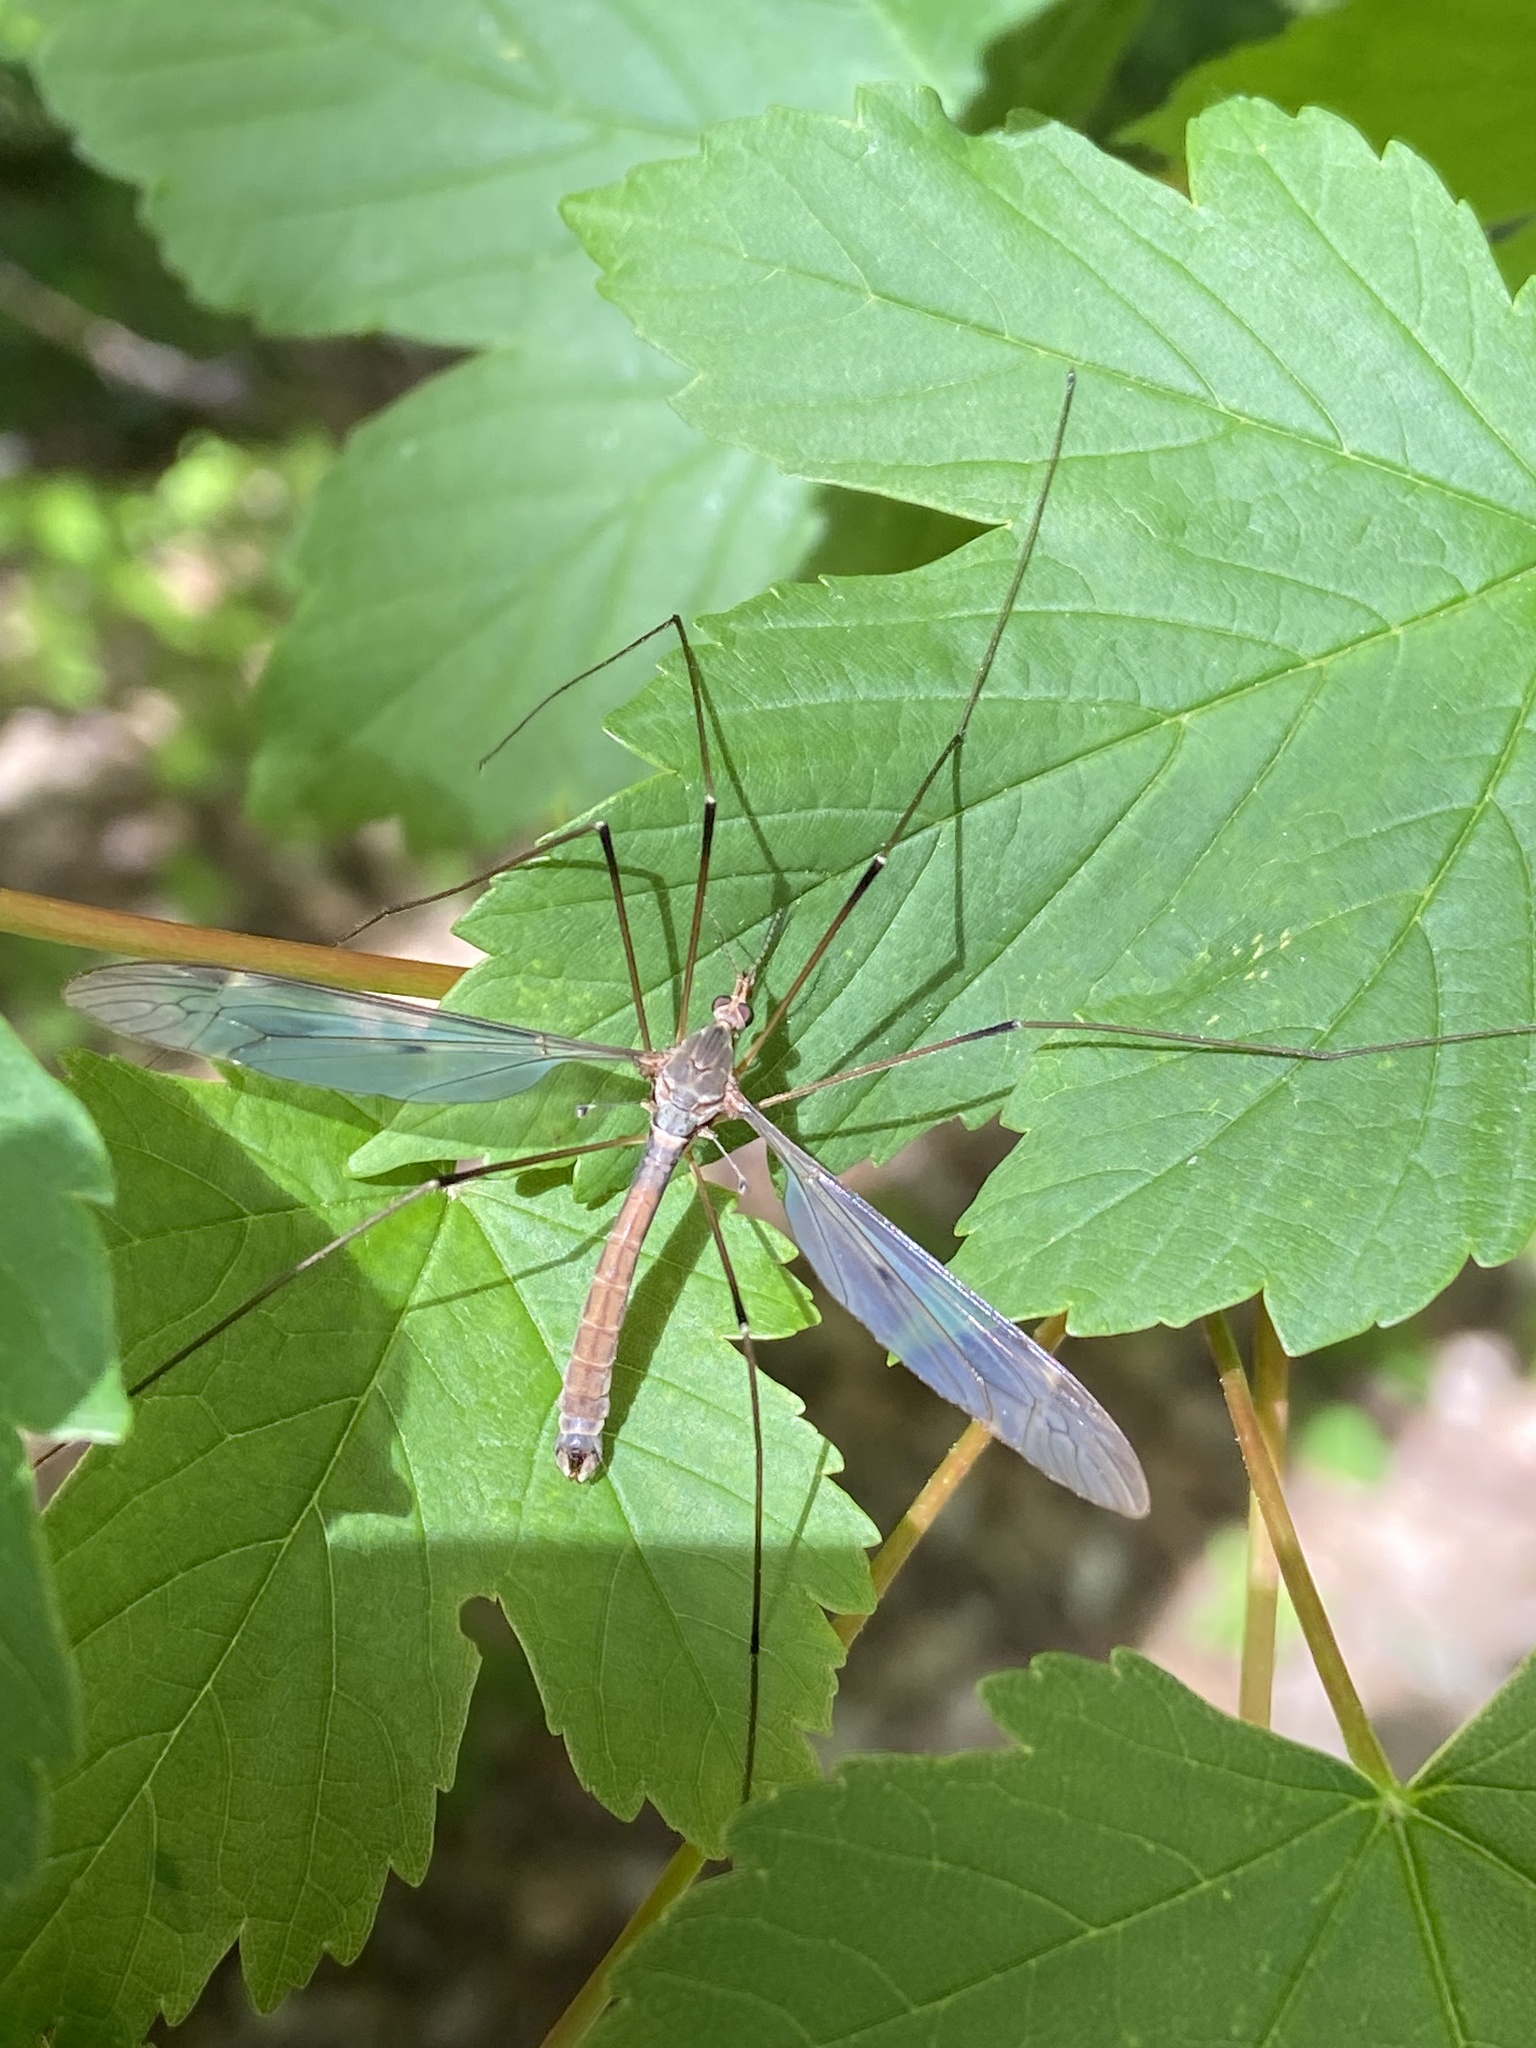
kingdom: Animalia
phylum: Arthropoda
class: Insecta
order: Diptera
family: Tipulidae
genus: Tipula
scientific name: Tipula fulvipennis
